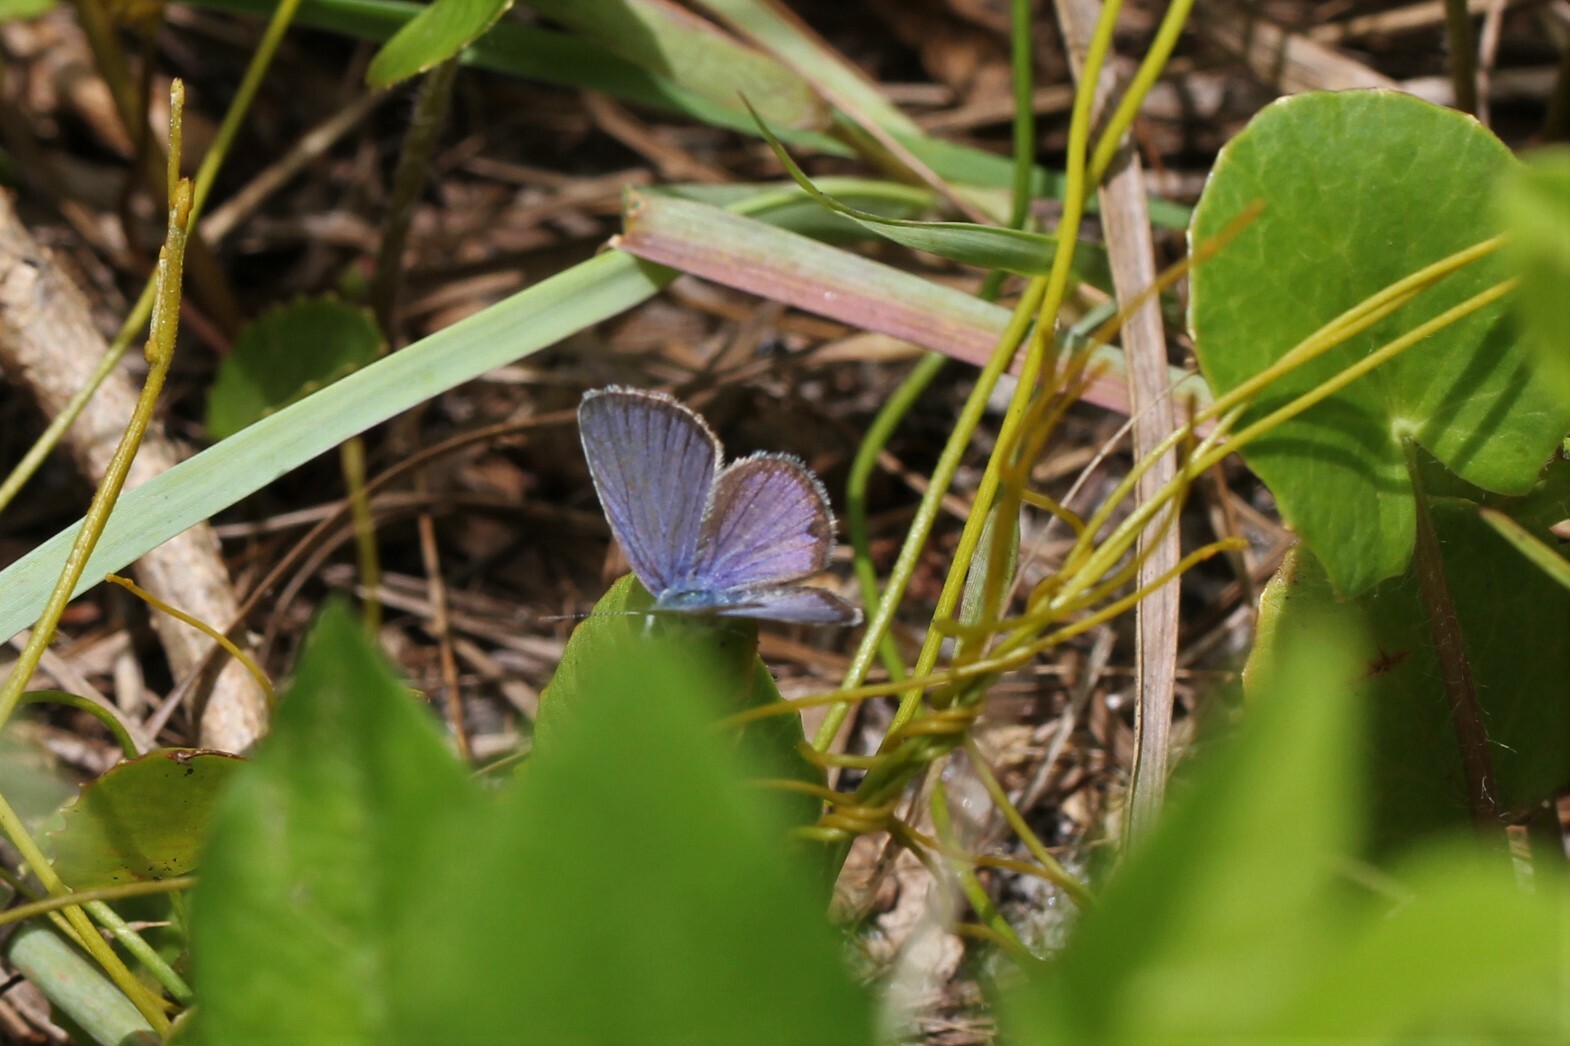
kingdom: Animalia
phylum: Arthropoda
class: Insecta
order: Lepidoptera
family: Lycaenidae
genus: Hemiargus
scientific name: Hemiargus ceraunus
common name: Ceraunus blue
